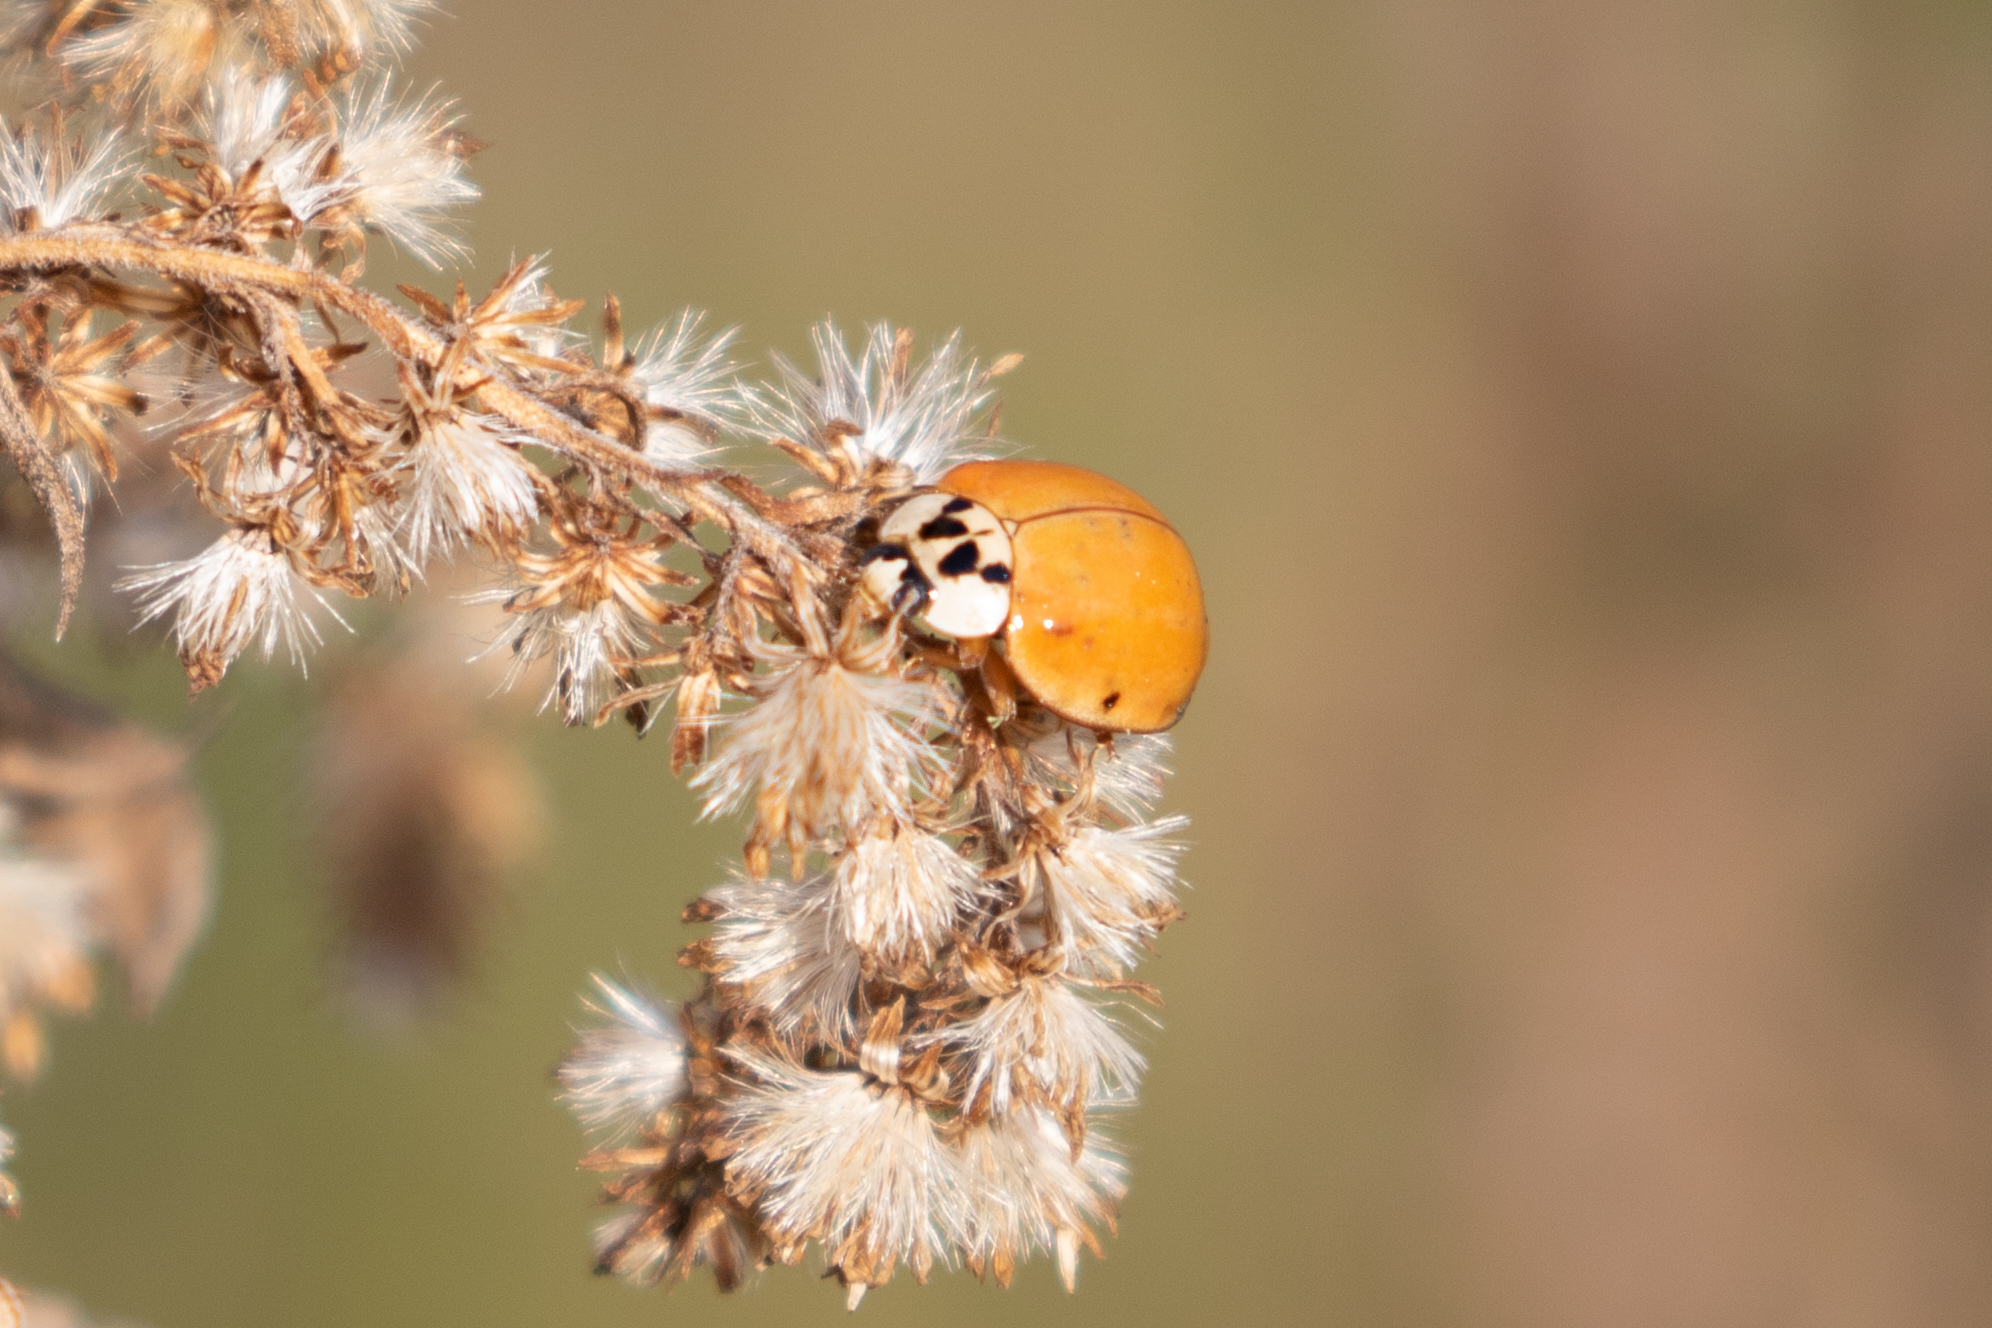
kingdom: Animalia
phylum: Arthropoda
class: Insecta
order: Coleoptera
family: Coccinellidae
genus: Harmonia
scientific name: Harmonia axyridis
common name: Harlequin ladybird
